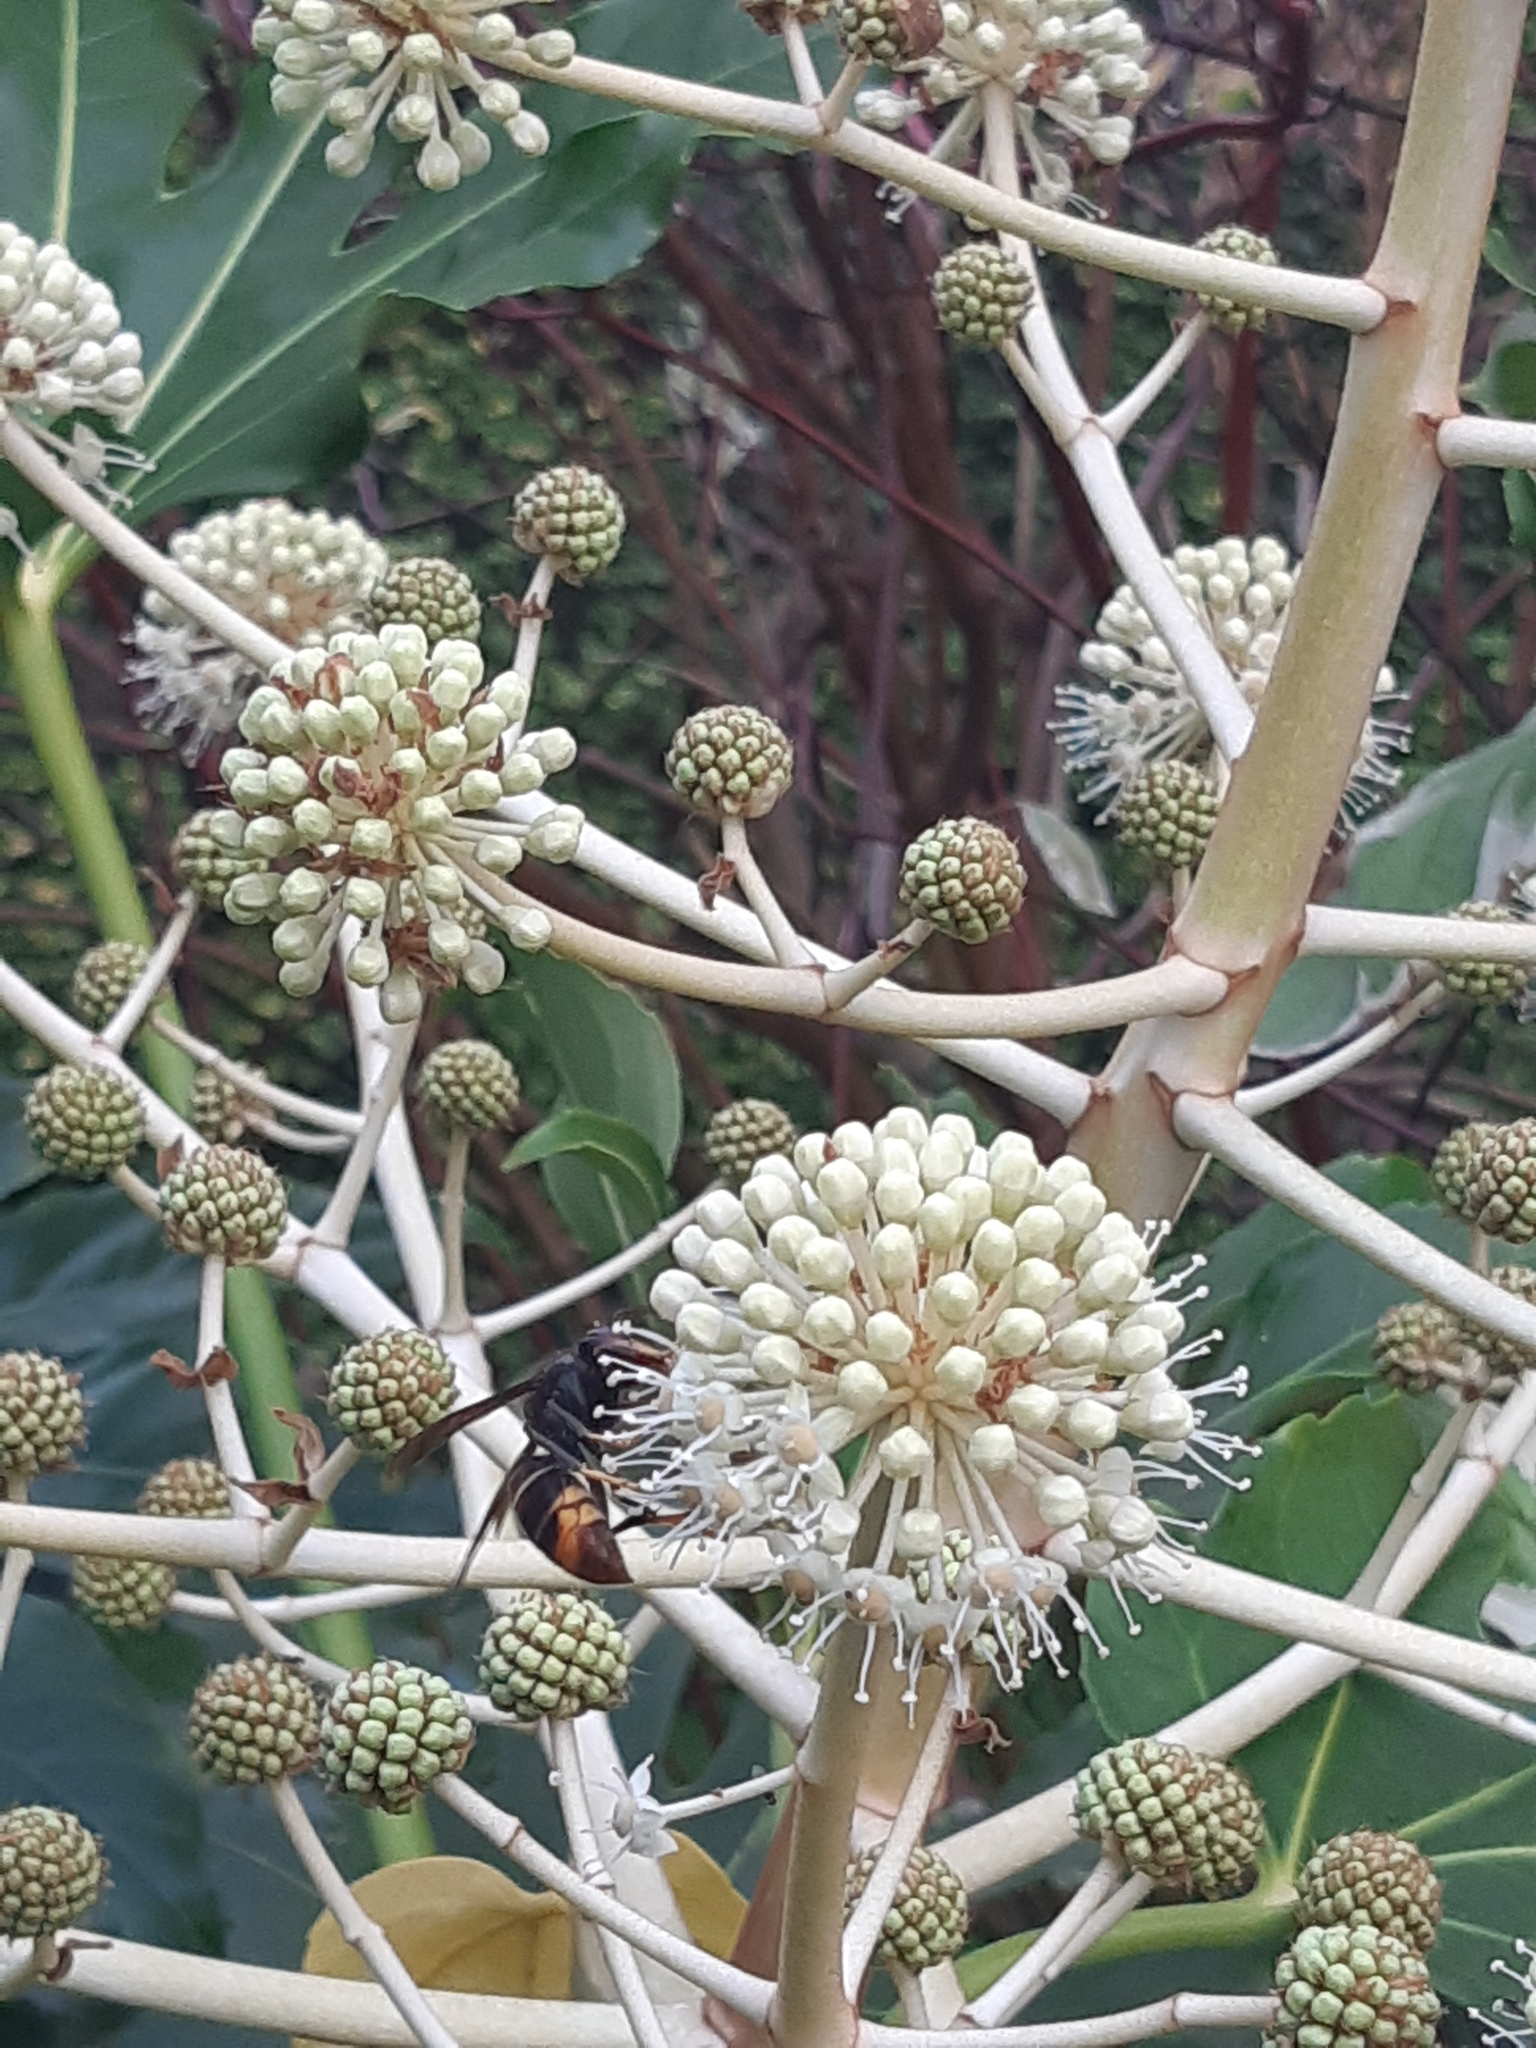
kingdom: Animalia
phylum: Arthropoda
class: Insecta
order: Hymenoptera
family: Vespidae
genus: Vespa
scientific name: Vespa velutina
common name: Asian hornet
